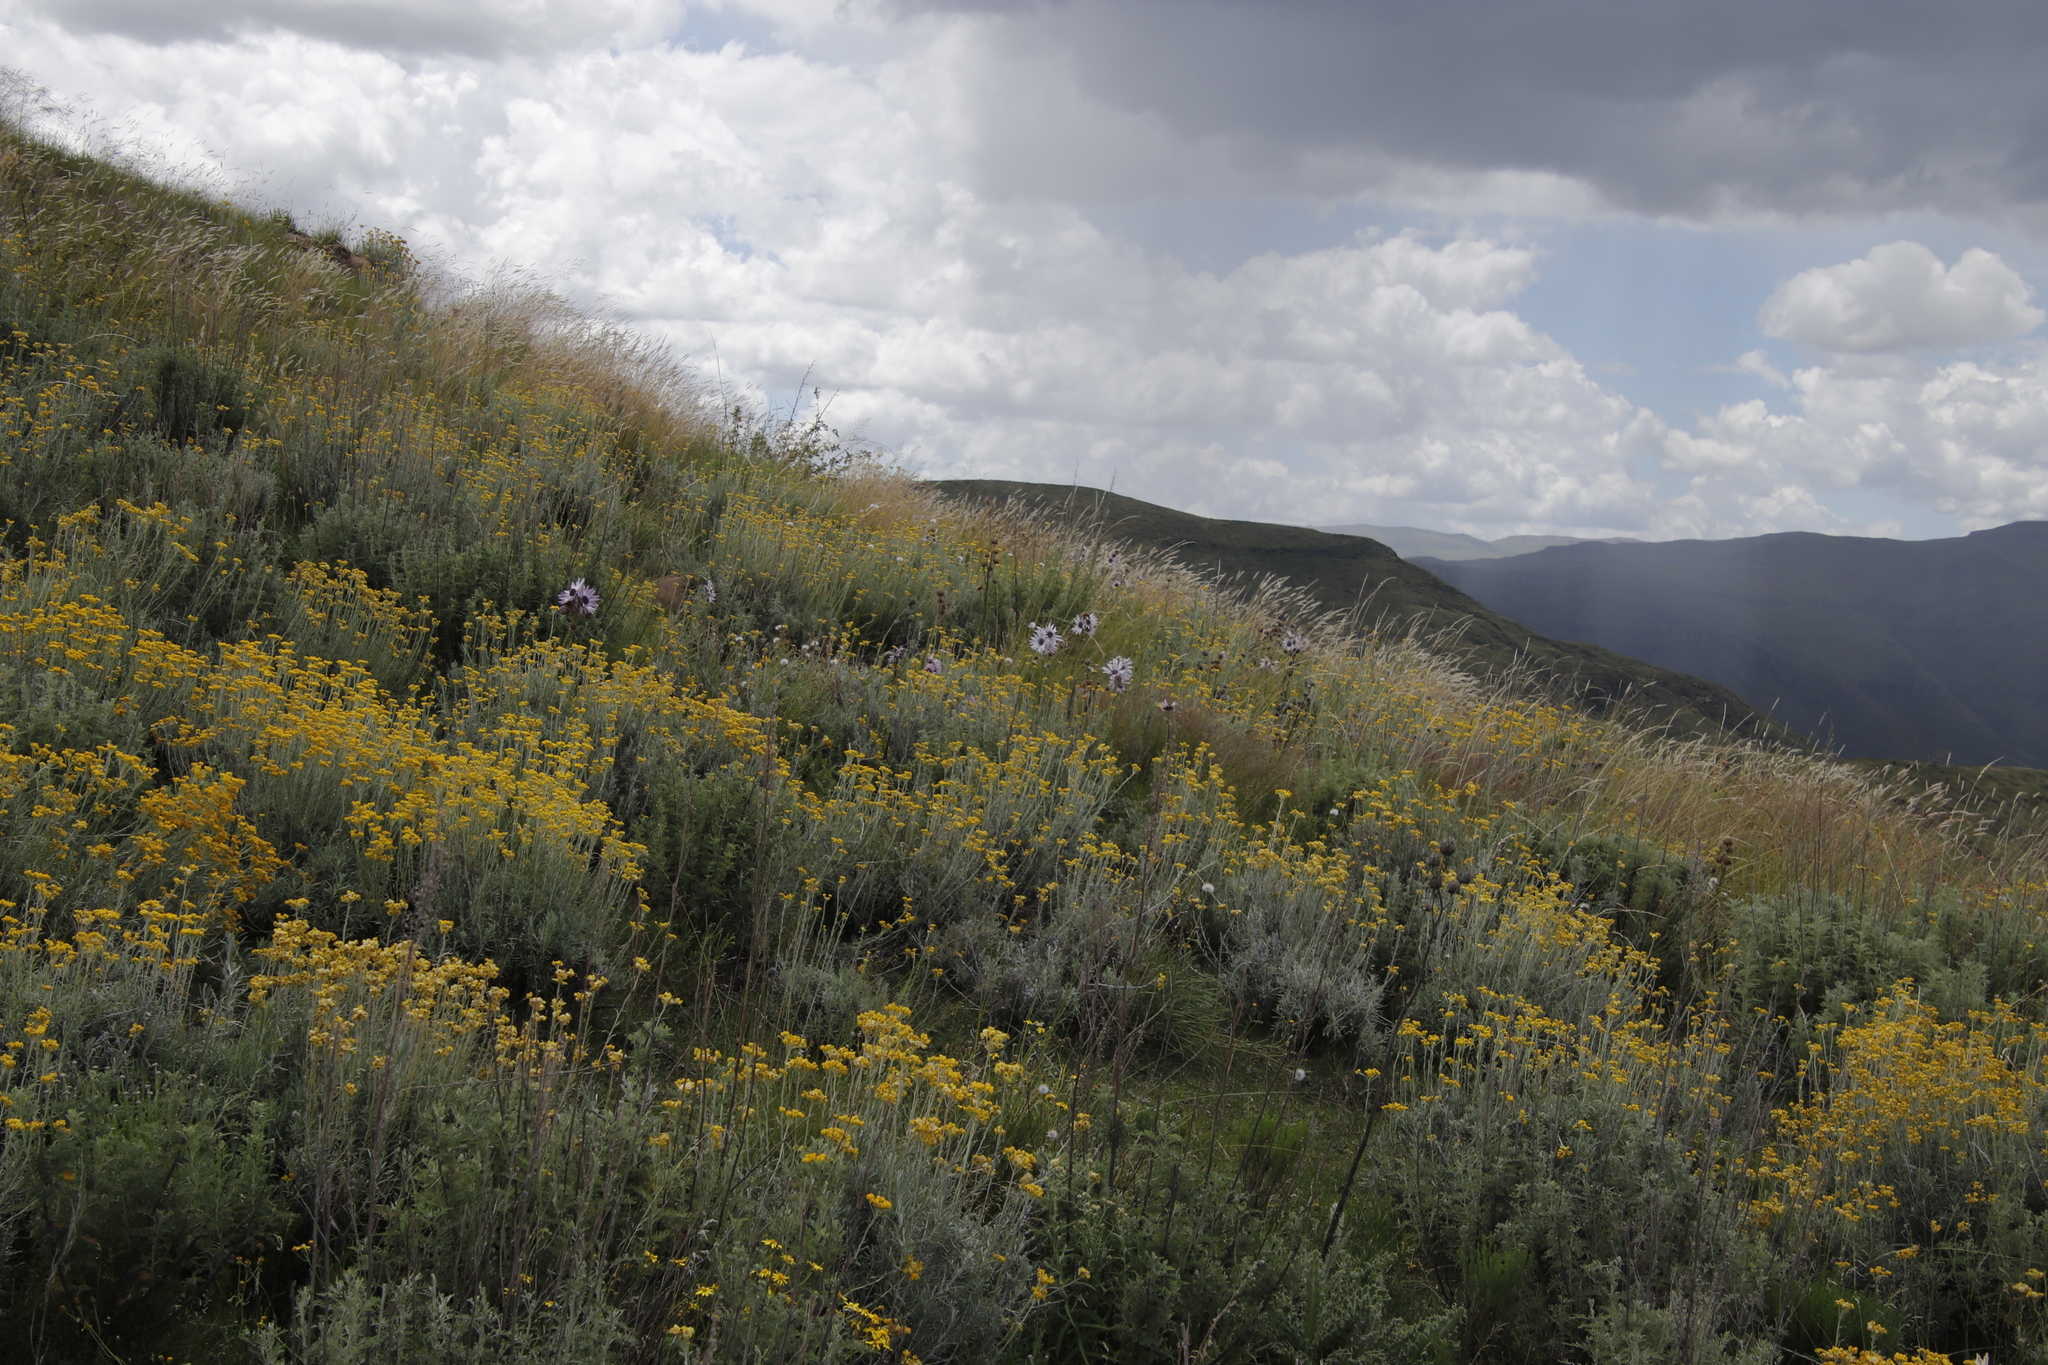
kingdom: Plantae
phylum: Tracheophyta
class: Magnoliopsida
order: Asterales
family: Asteraceae
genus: Berkheya
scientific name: Berkheya purpurea
